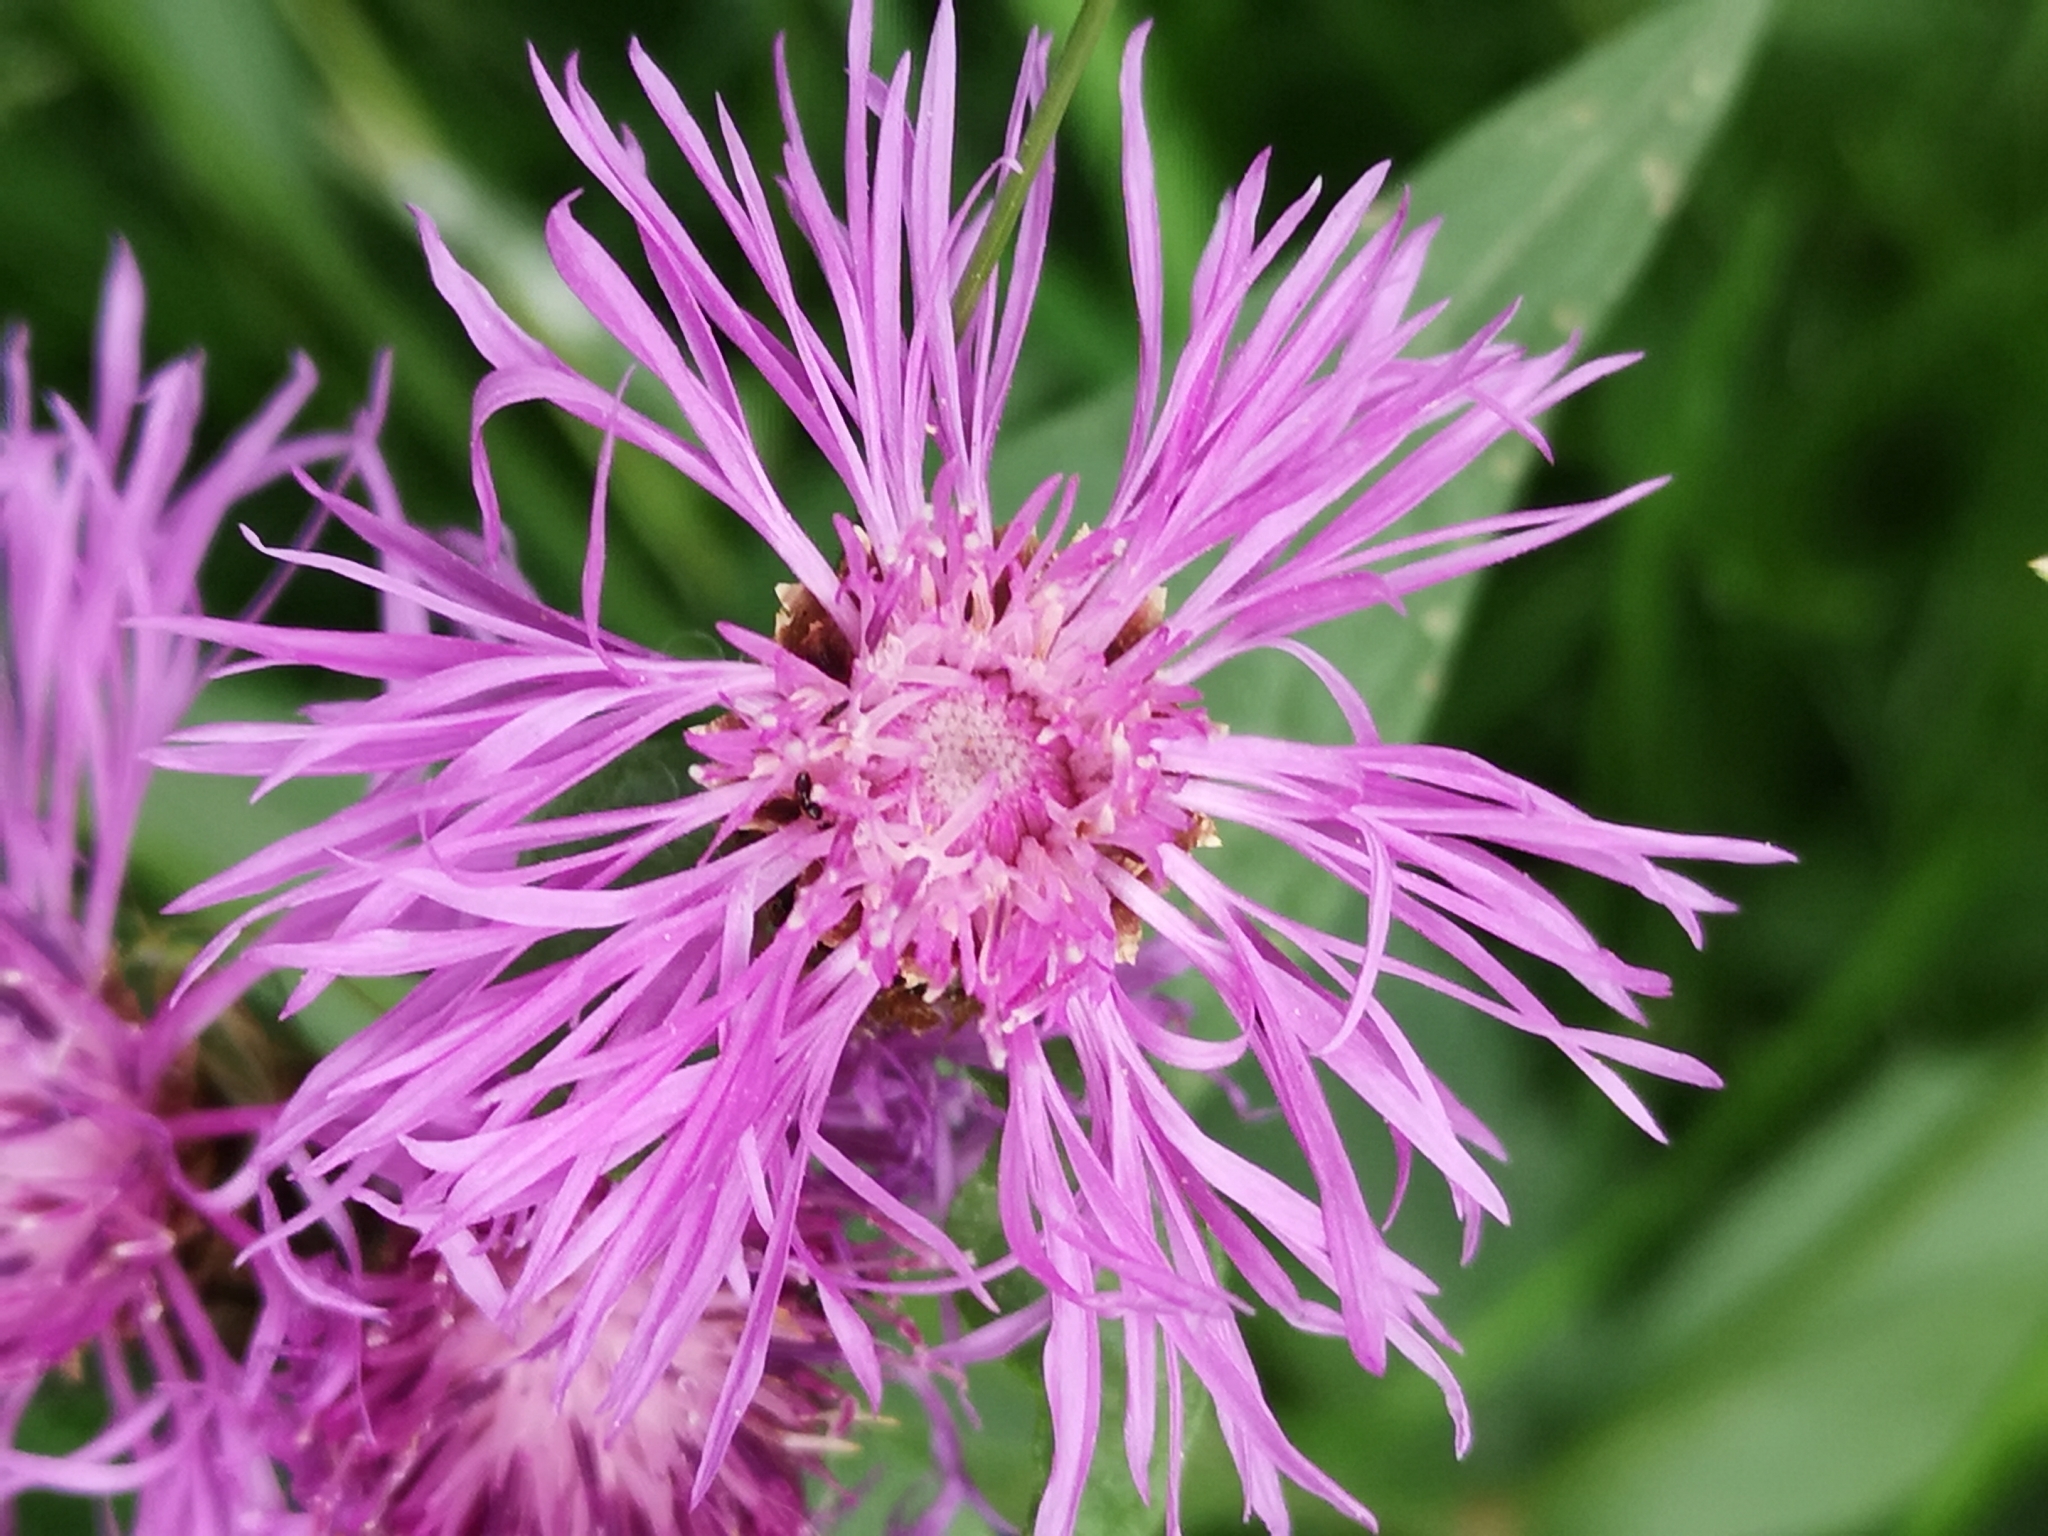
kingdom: Plantae
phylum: Tracheophyta
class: Magnoliopsida
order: Asterales
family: Asteraceae
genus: Centaurea
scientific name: Centaurea jacea
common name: Brown knapweed
